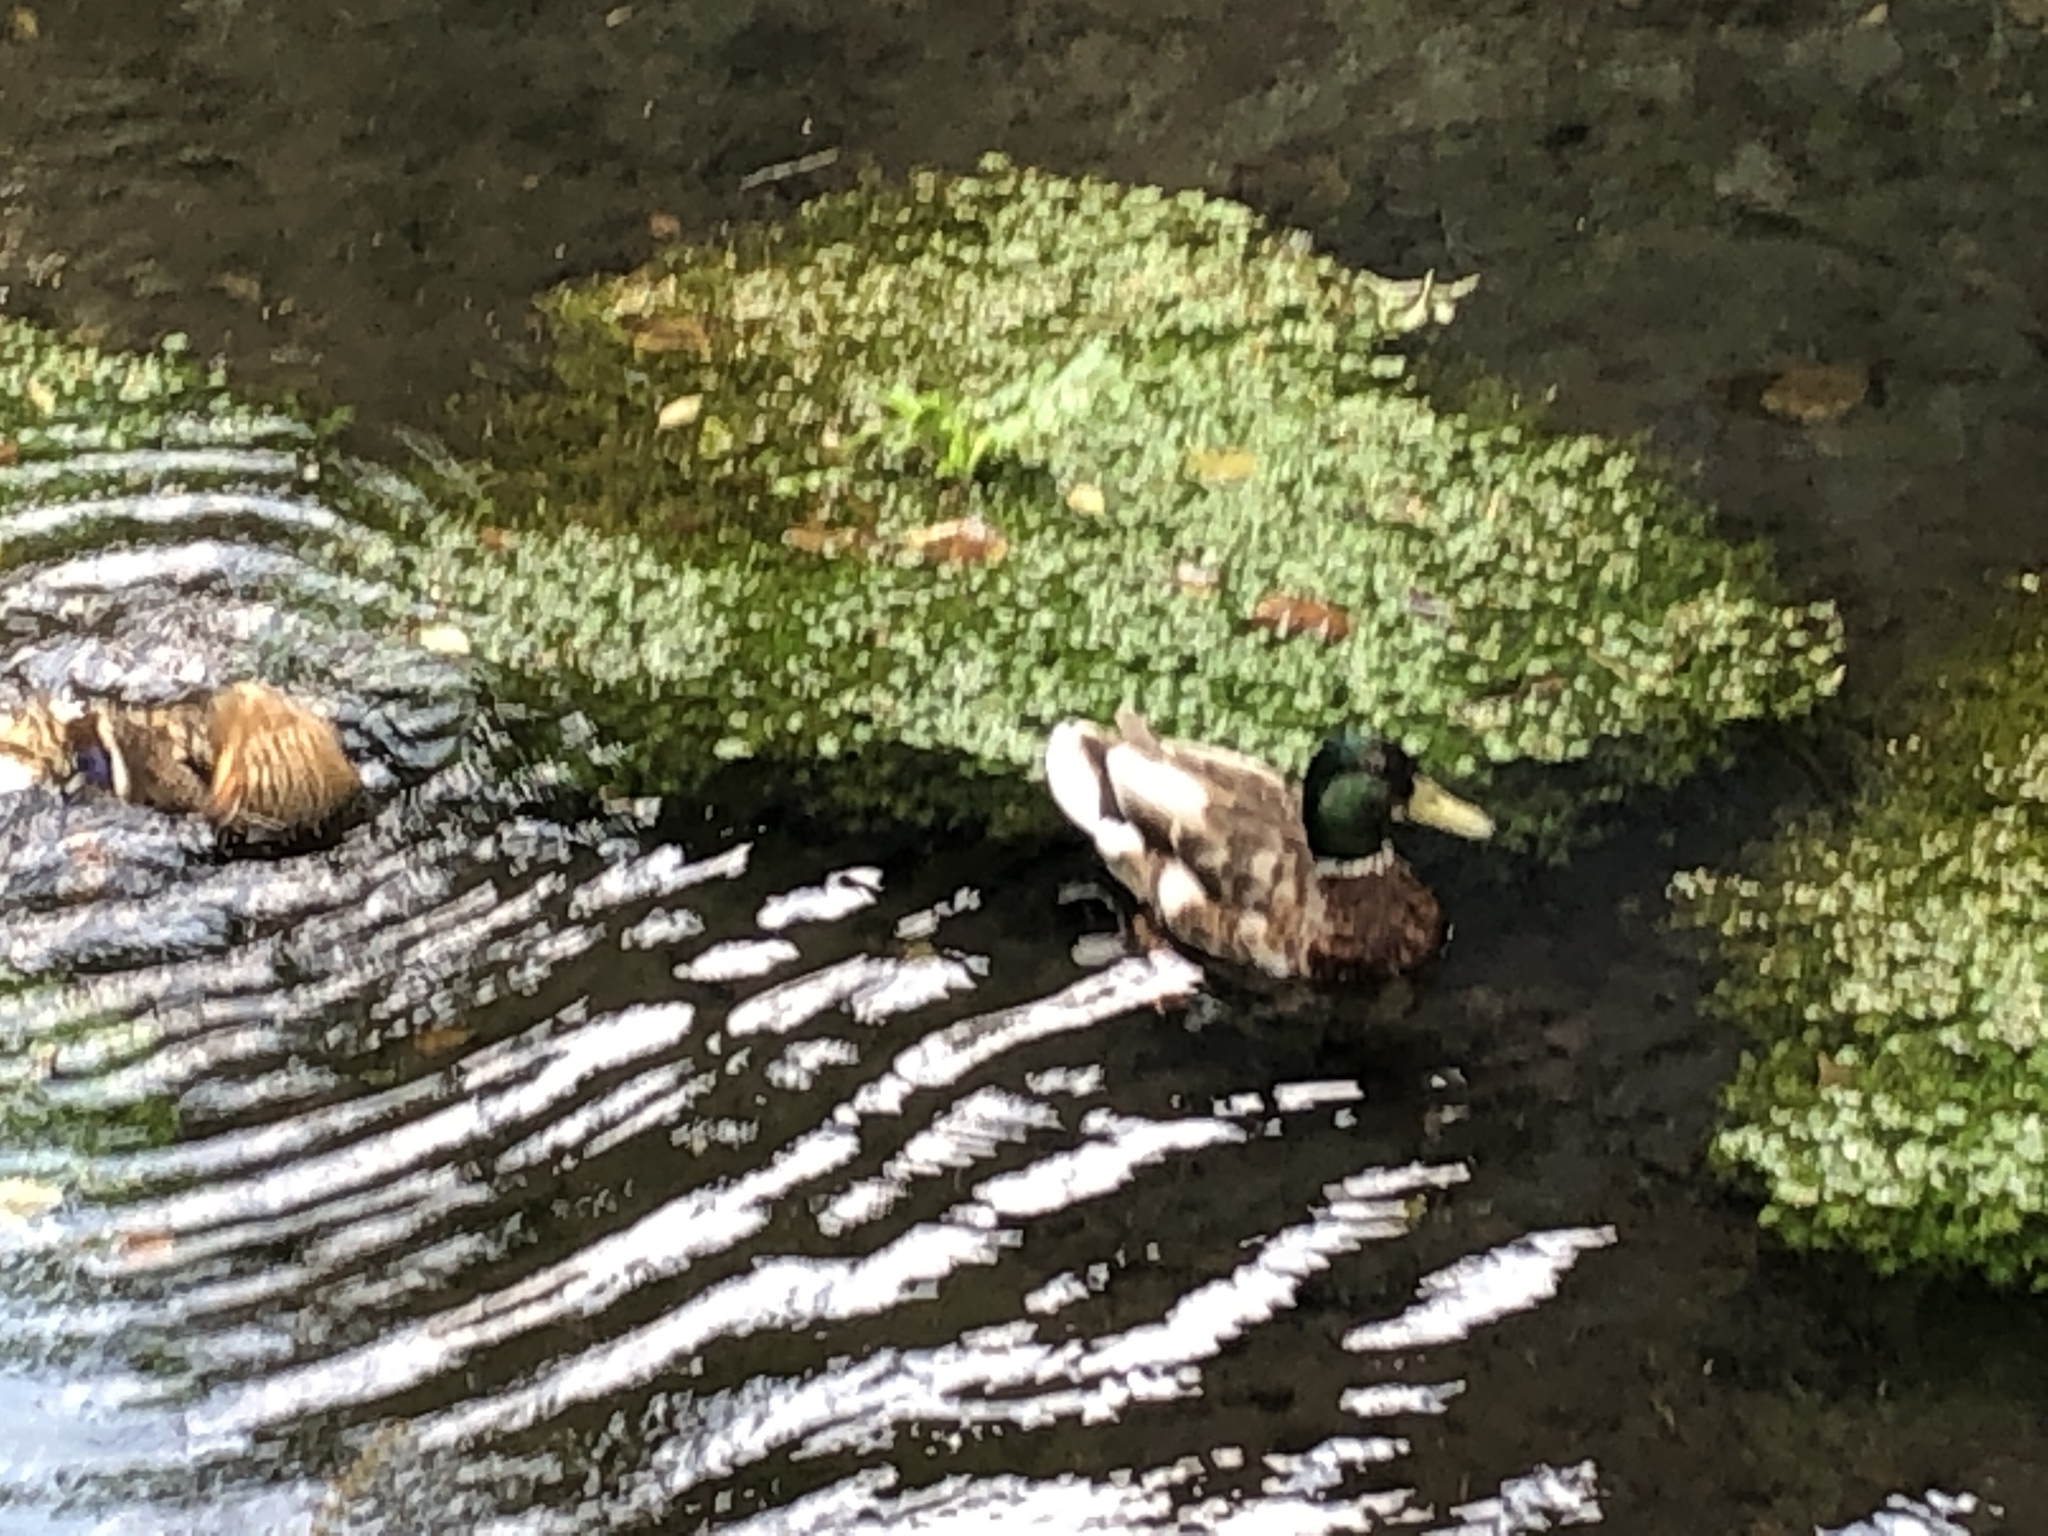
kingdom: Animalia
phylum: Chordata
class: Aves
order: Anseriformes
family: Anatidae
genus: Anas
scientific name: Anas platyrhynchos
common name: Mallard
